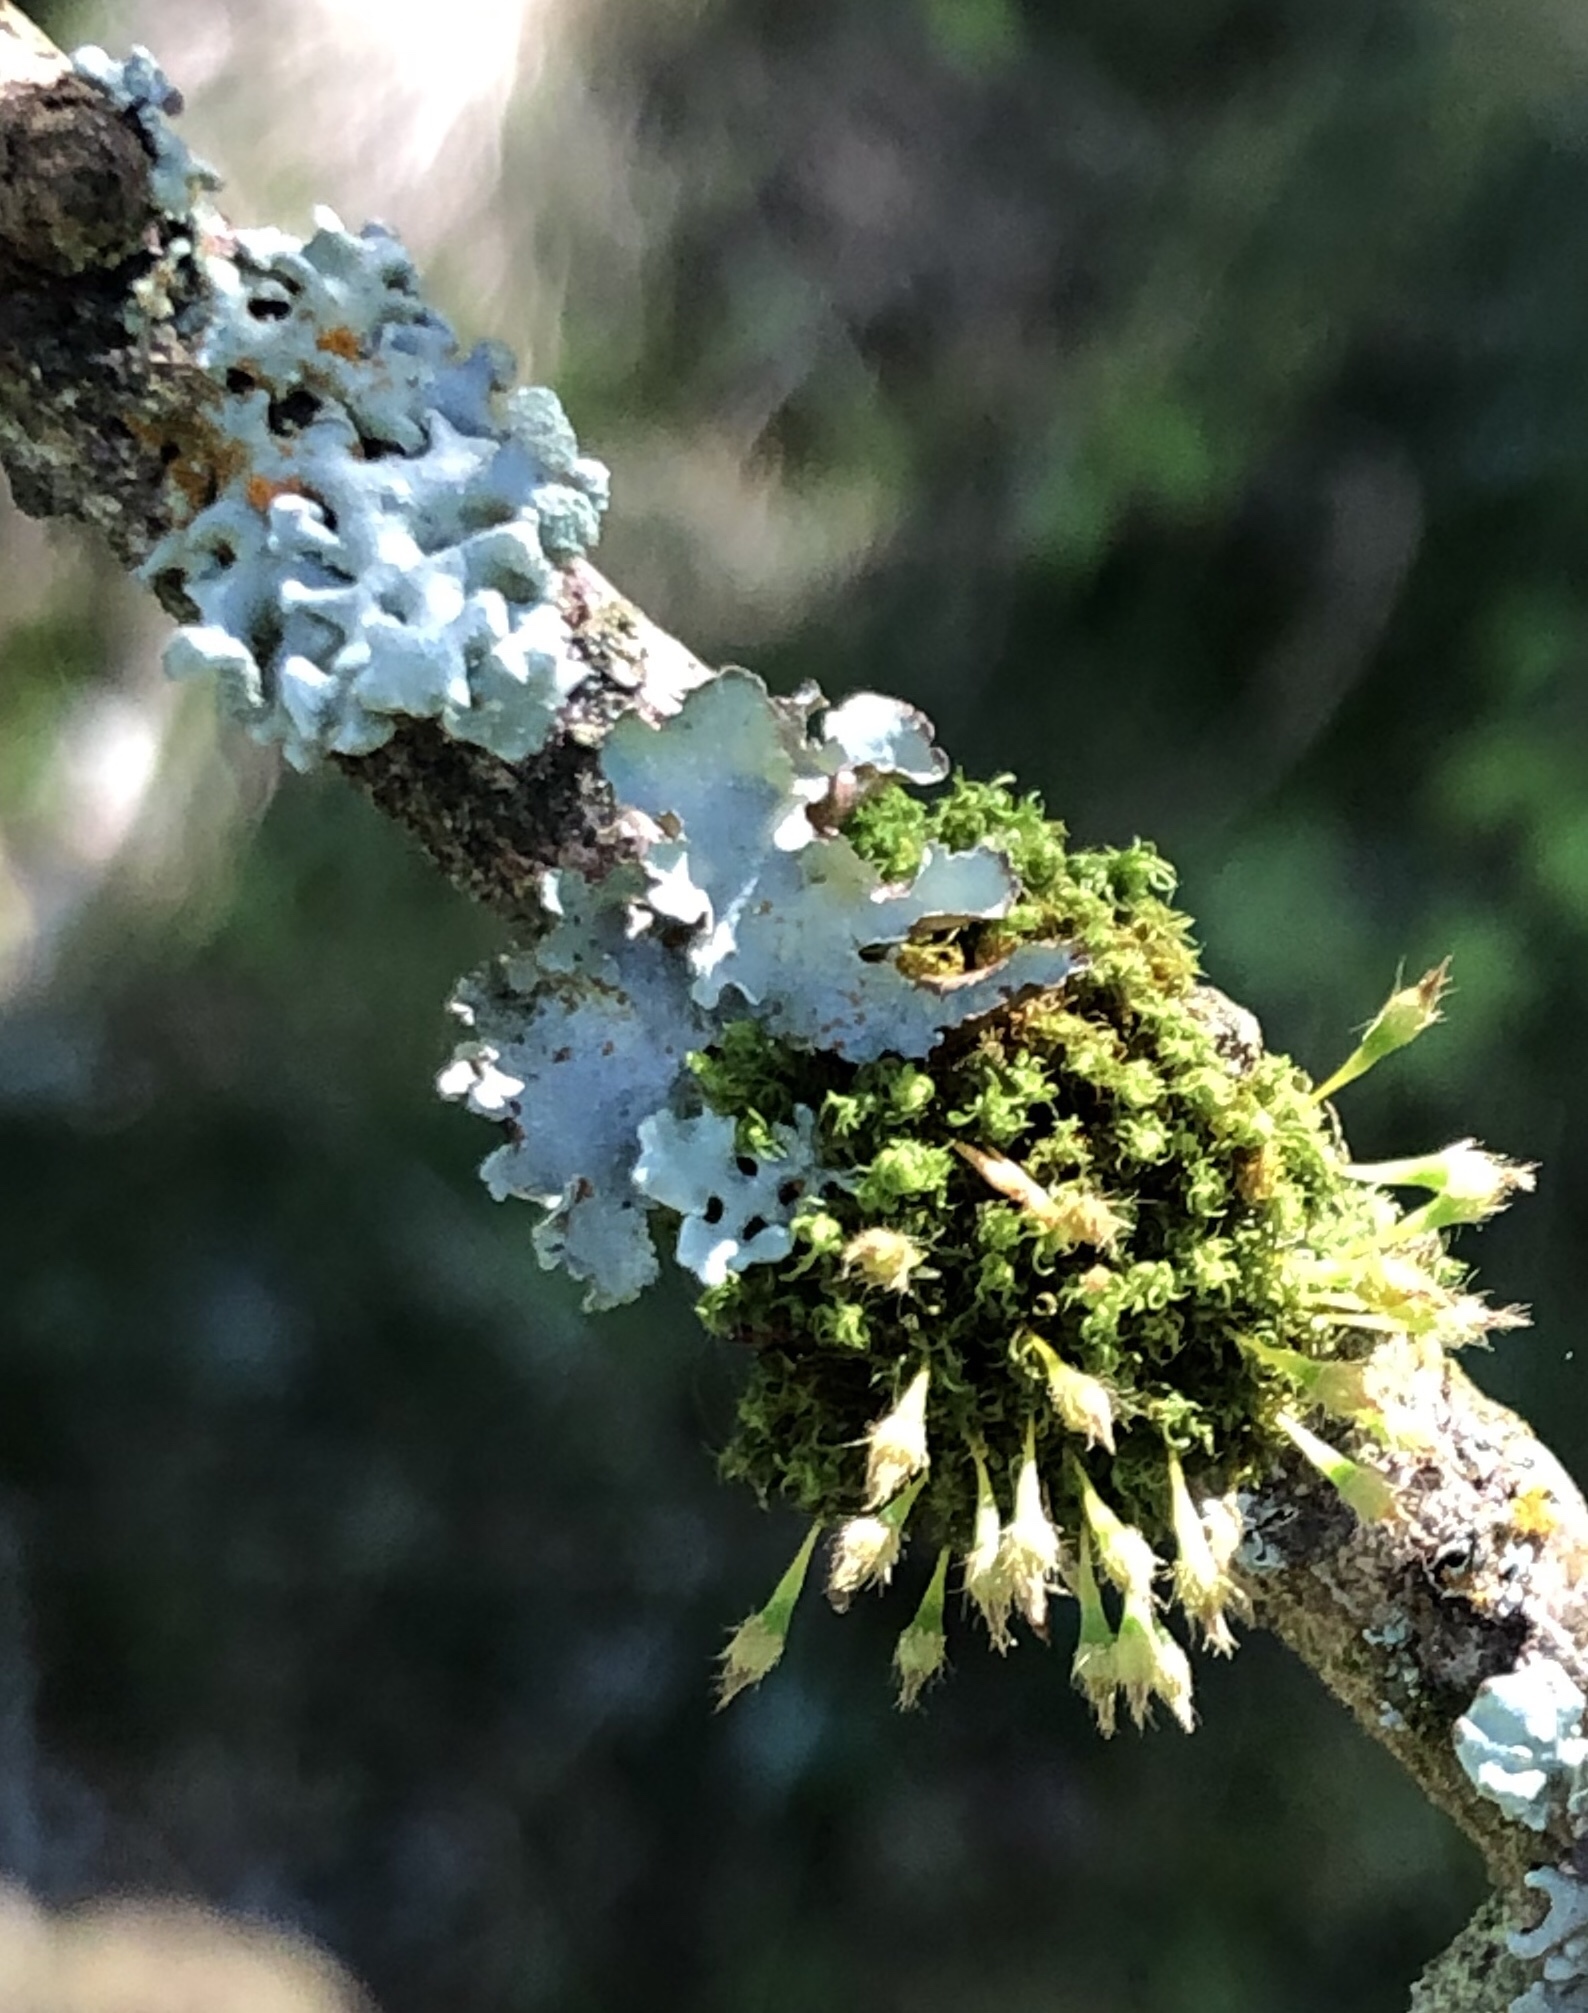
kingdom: Fungi
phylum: Ascomycota
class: Lecanoromycetes
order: Lecanorales
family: Parmeliaceae
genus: Hypogymnia
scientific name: Hypogymnia tubulosa
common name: Powder-headed tube lichen
